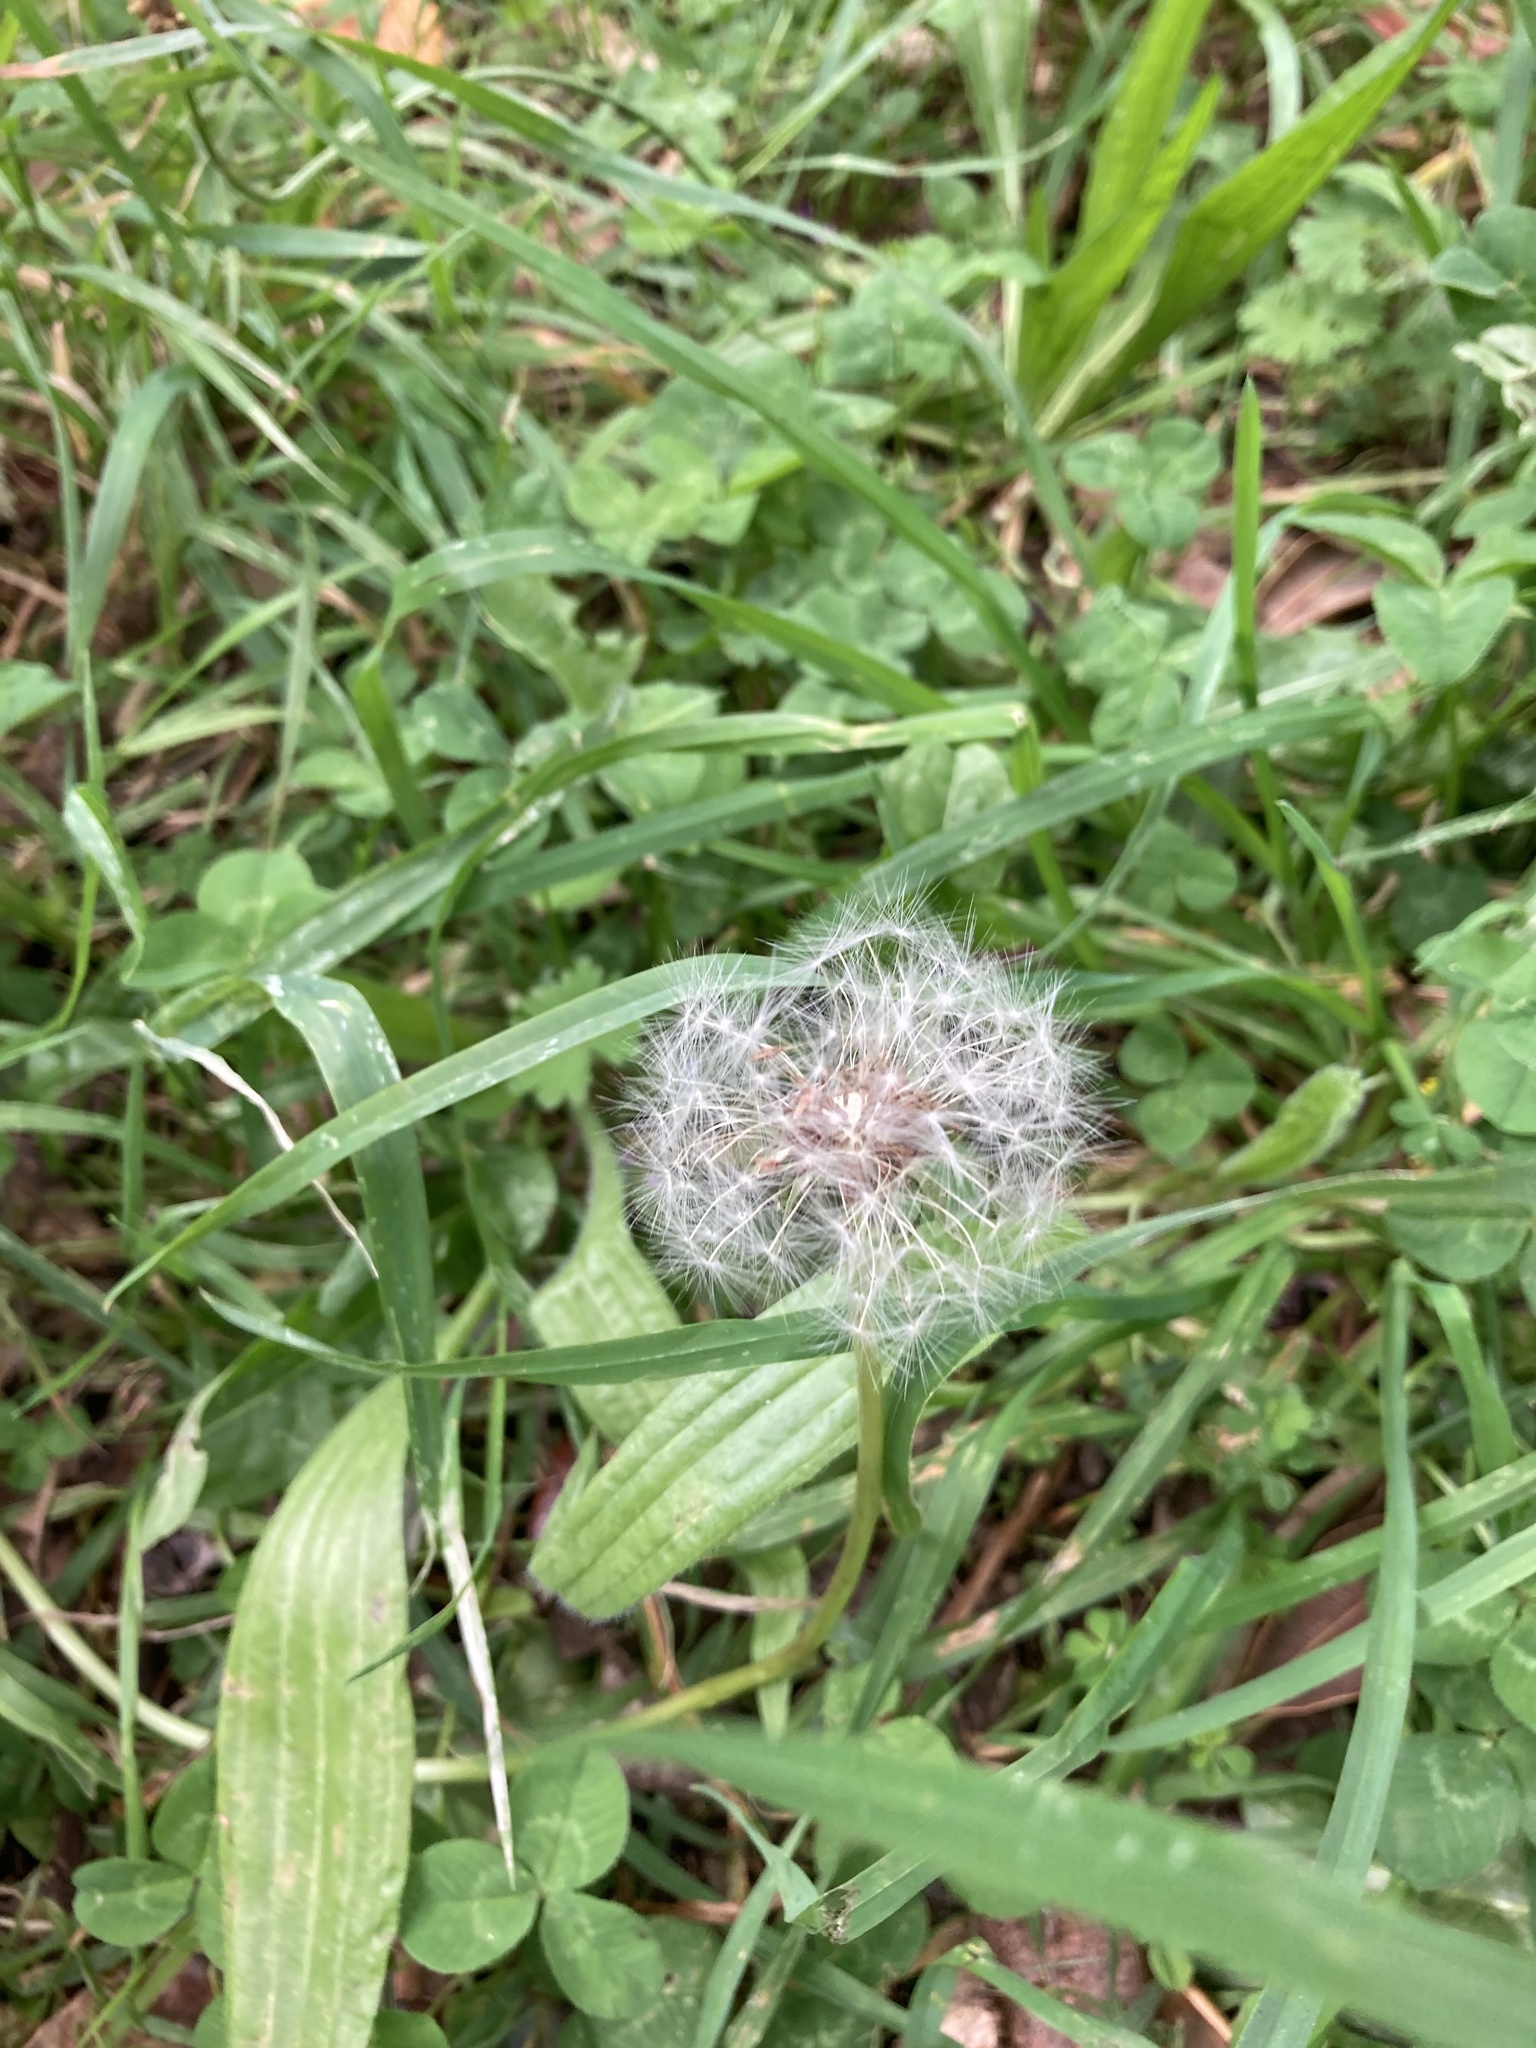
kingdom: Plantae
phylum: Tracheophyta
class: Magnoliopsida
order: Asterales
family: Asteraceae
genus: Taraxacum
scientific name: Taraxacum officinale
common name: Common dandelion
